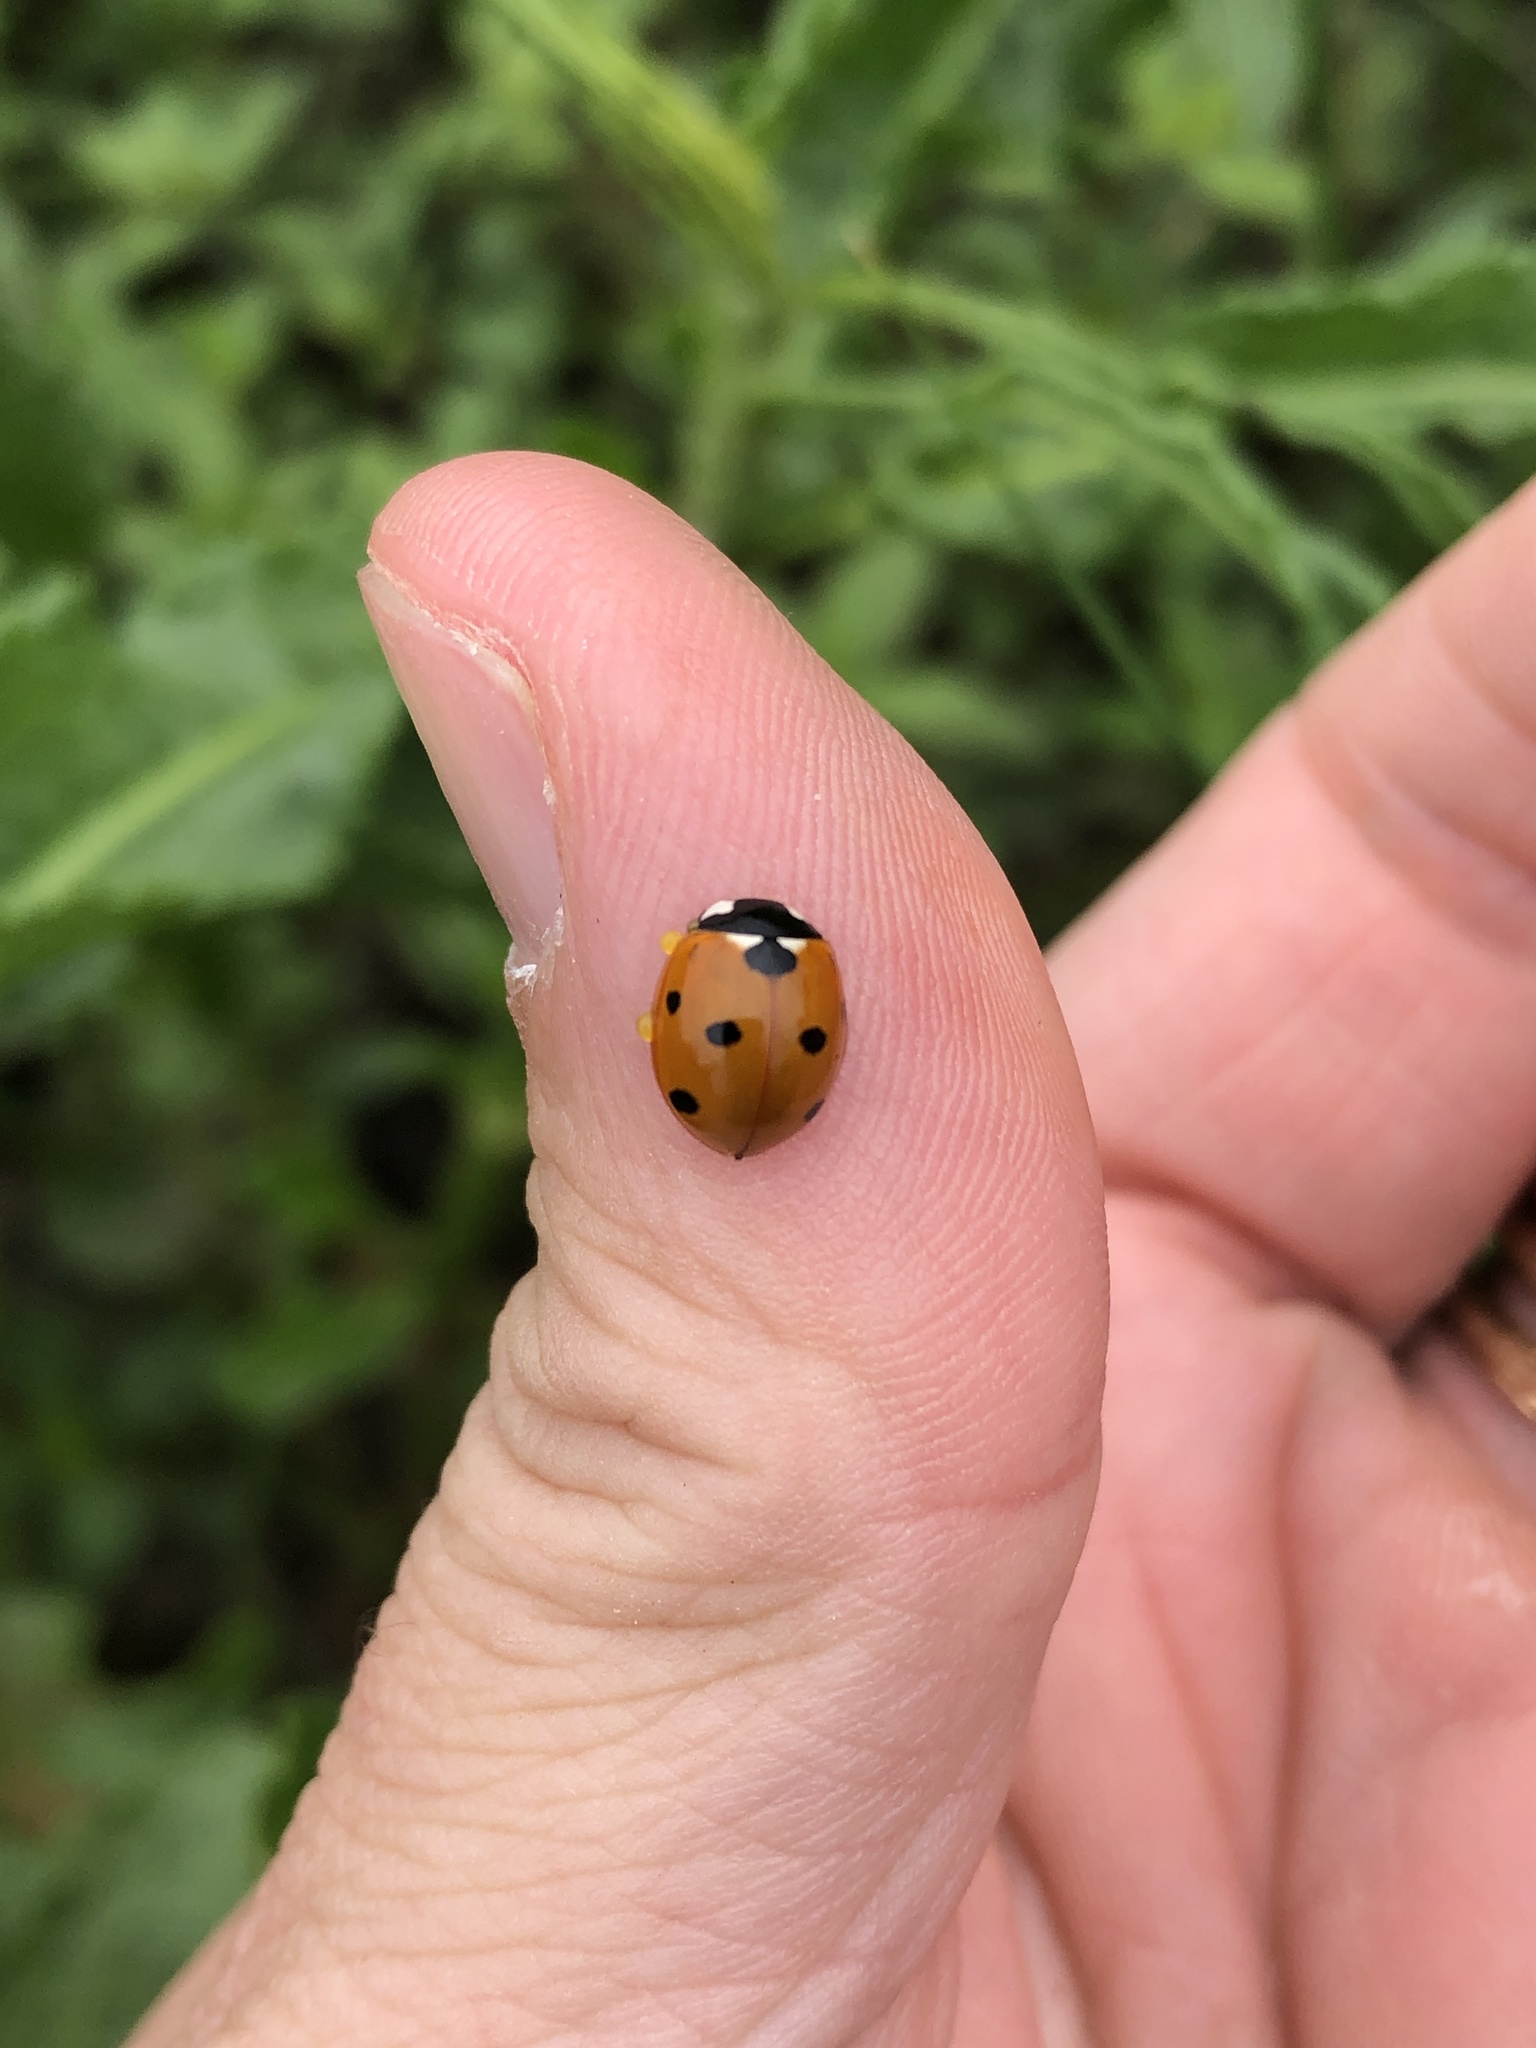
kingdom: Animalia
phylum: Arthropoda
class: Insecta
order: Coleoptera
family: Coccinellidae
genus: Coccinella
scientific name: Coccinella septempunctata
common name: Sevenspotted lady beetle
